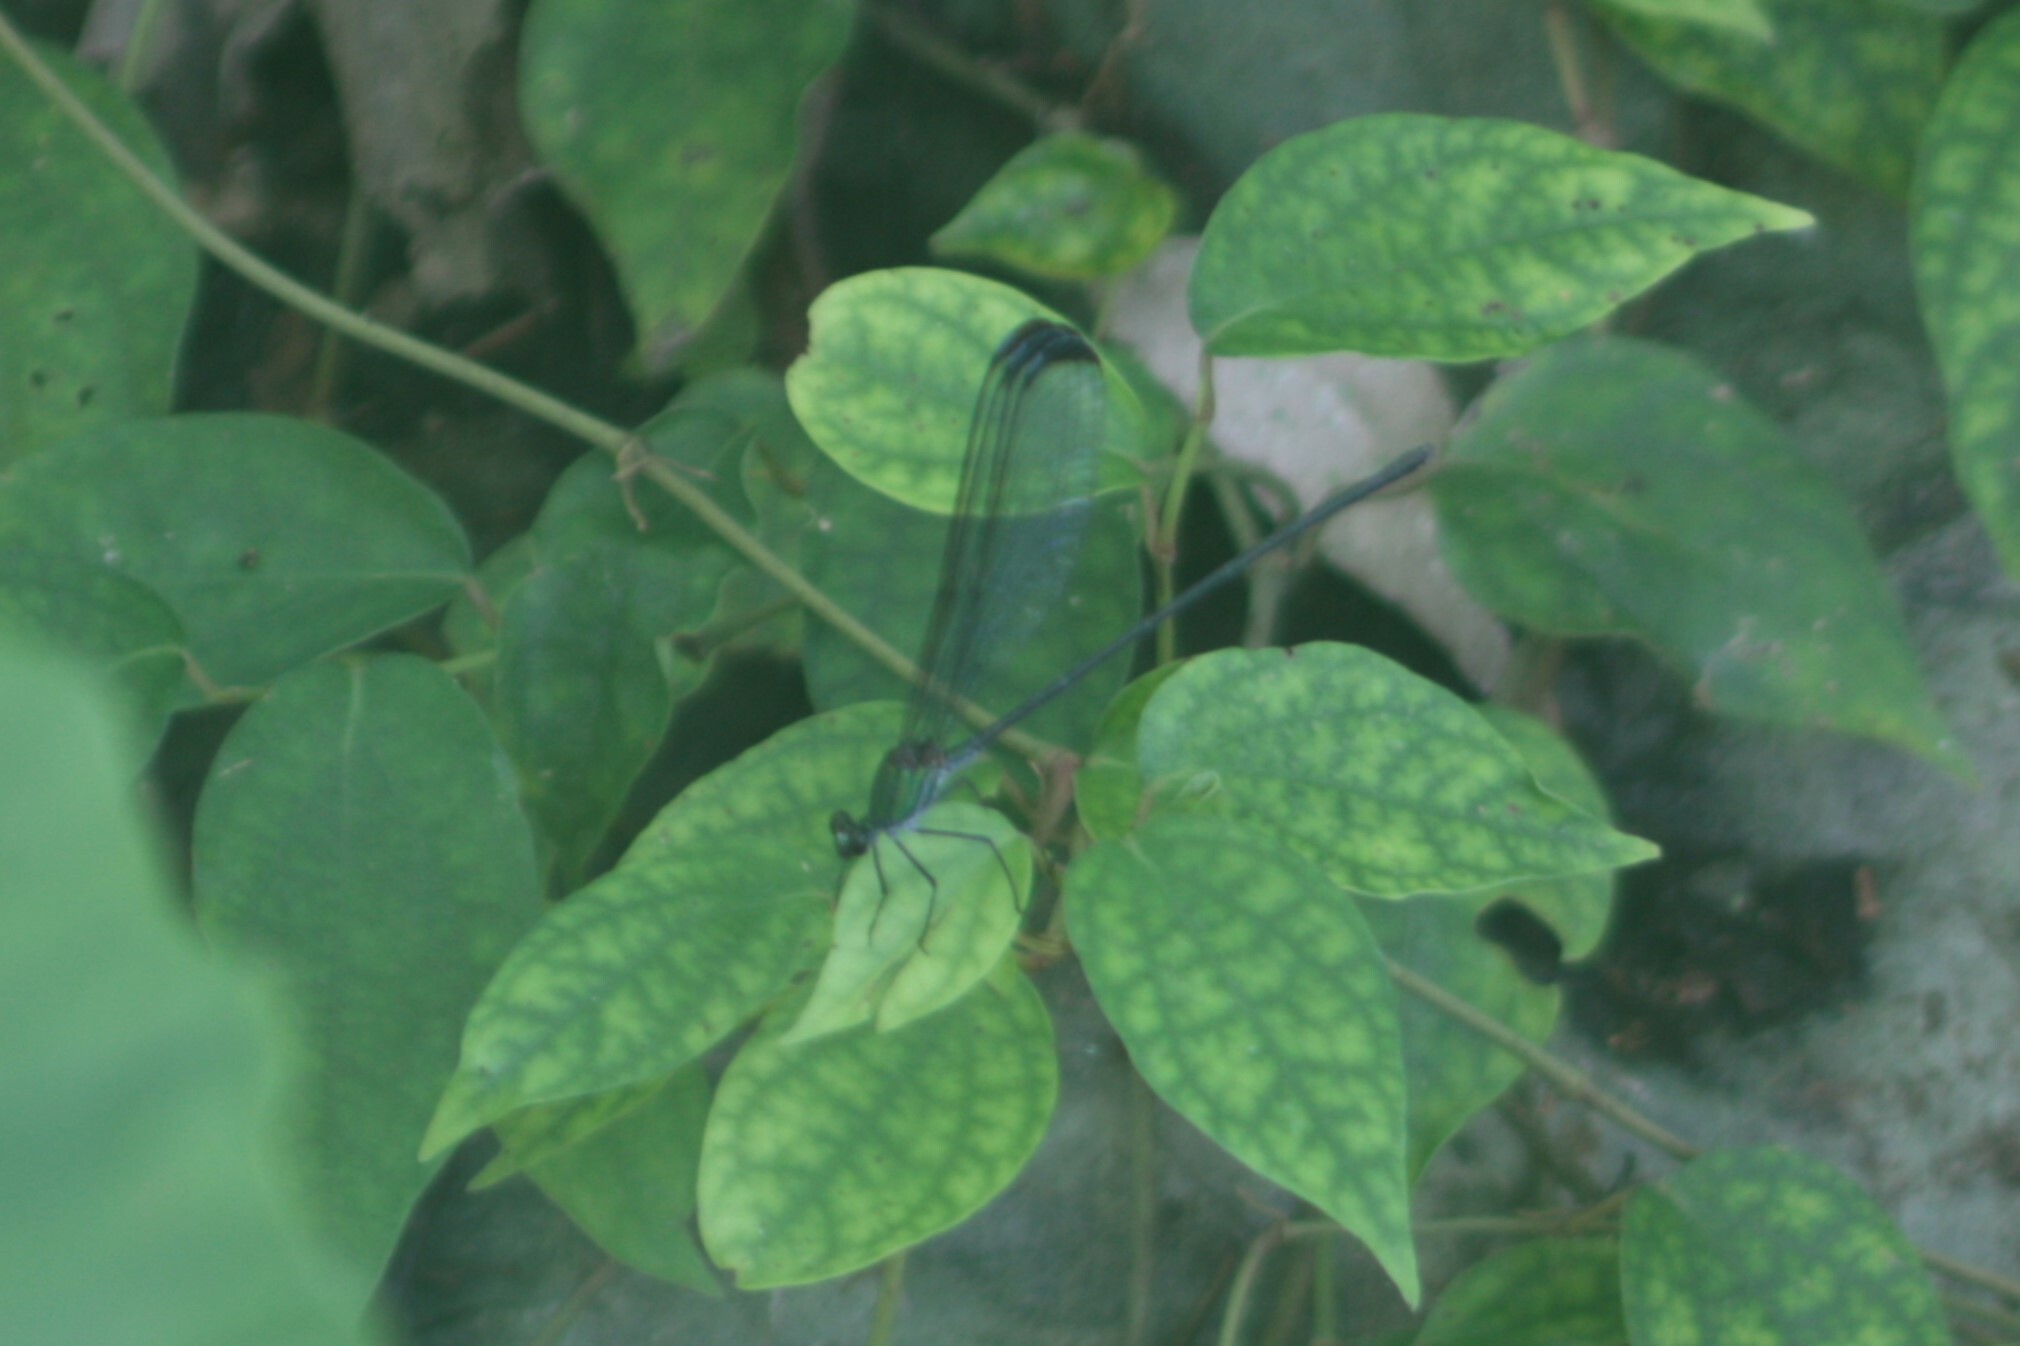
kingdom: Animalia
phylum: Arthropoda
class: Insecta
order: Odonata
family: Calopterygidae
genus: Psolodesmus
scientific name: Psolodesmus mandarinus
